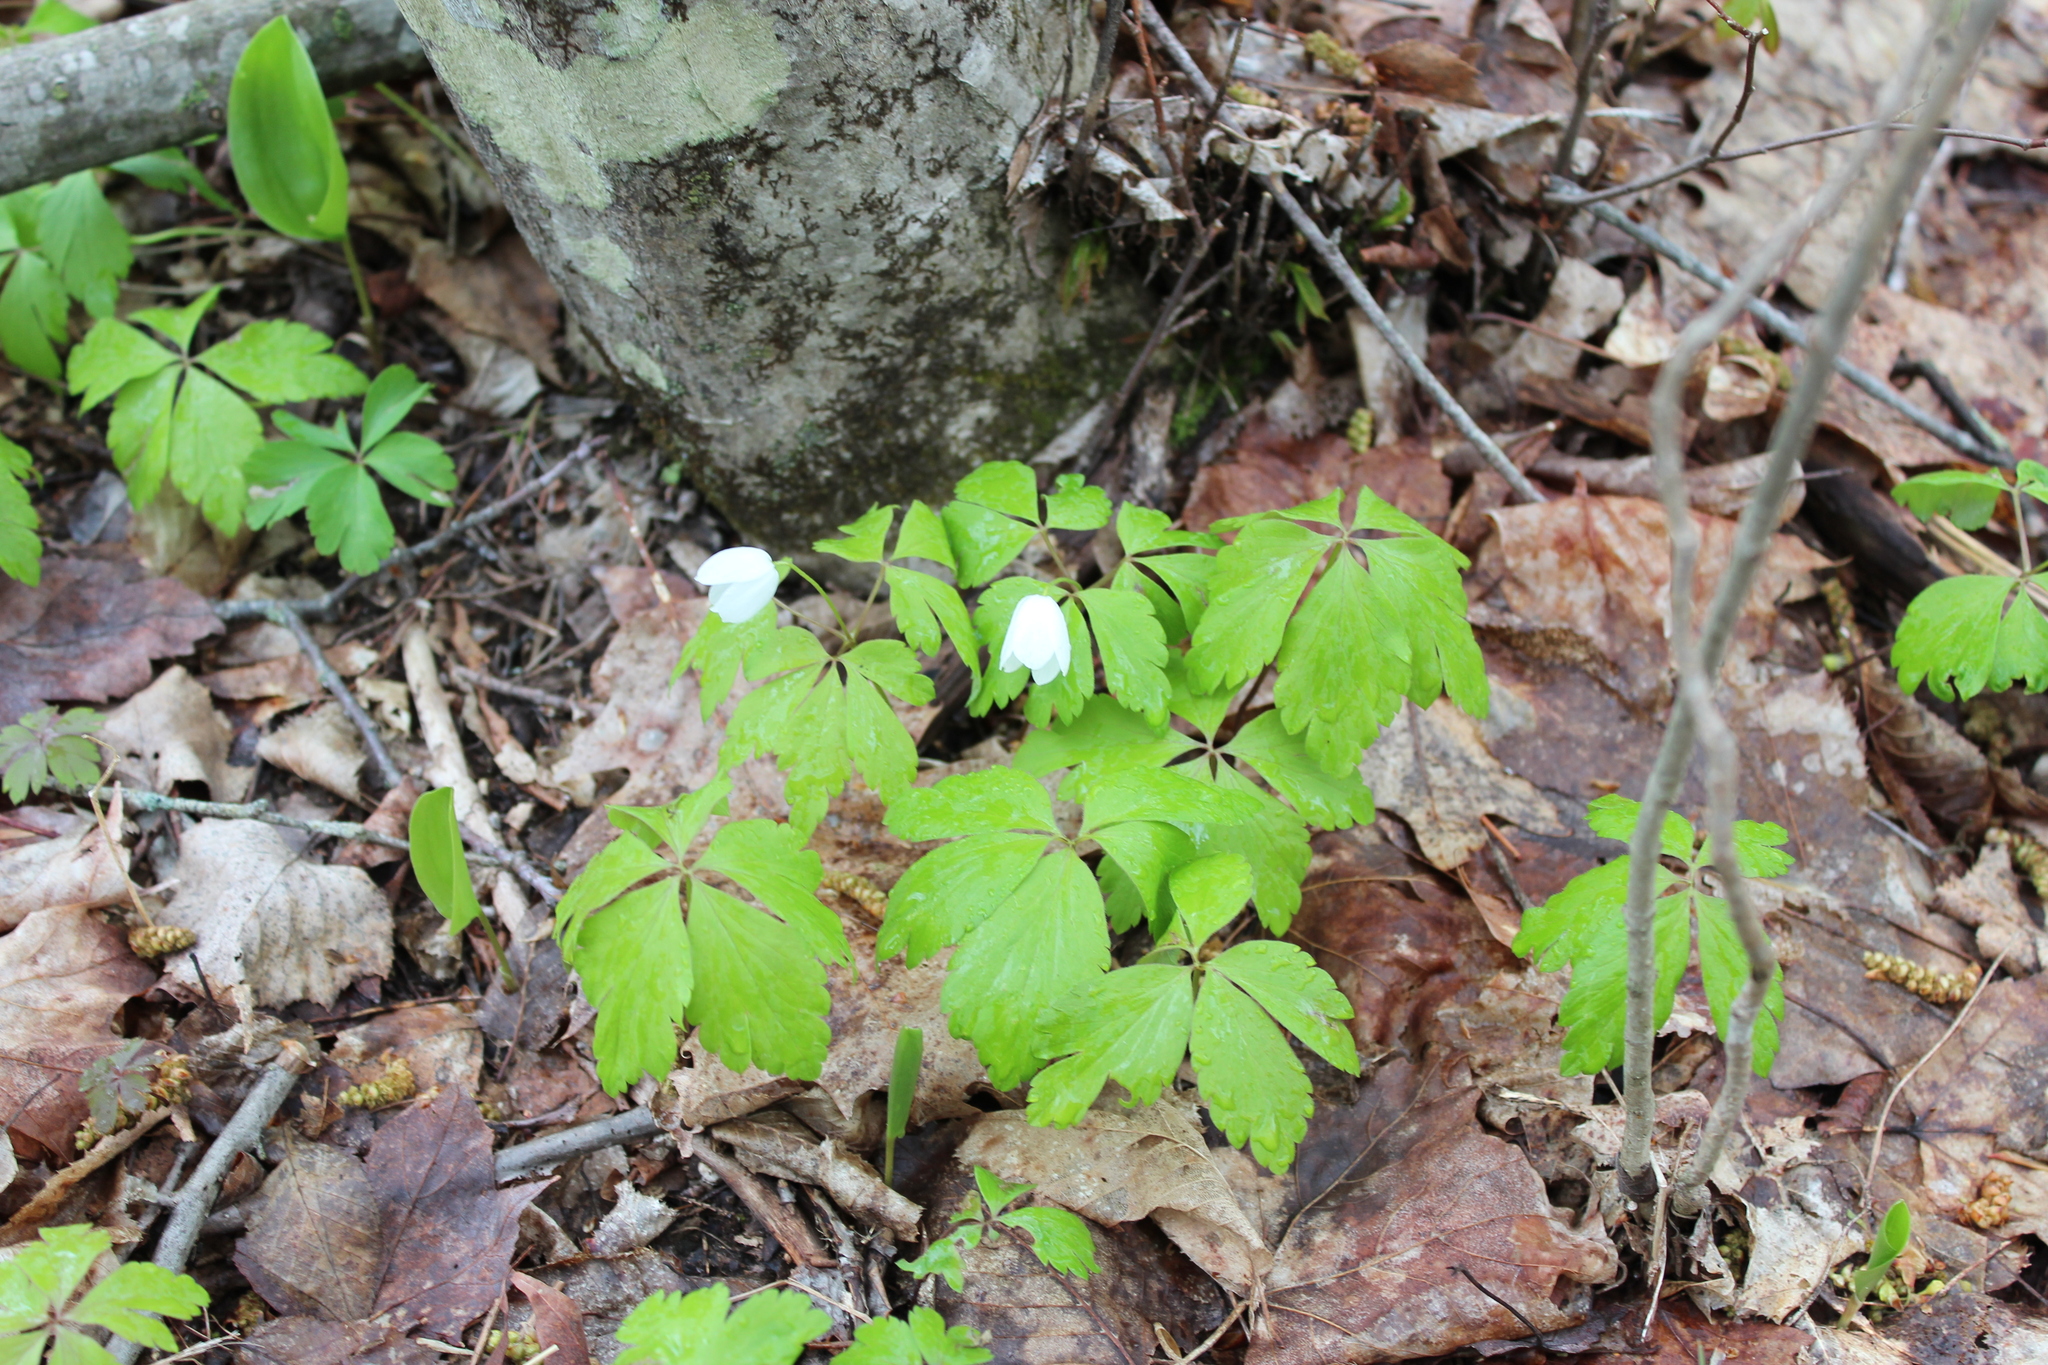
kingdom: Plantae
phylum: Tracheophyta
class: Magnoliopsida
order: Ranunculales
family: Ranunculaceae
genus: Anemone
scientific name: Anemone quinquefolia
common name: Wood anemone
